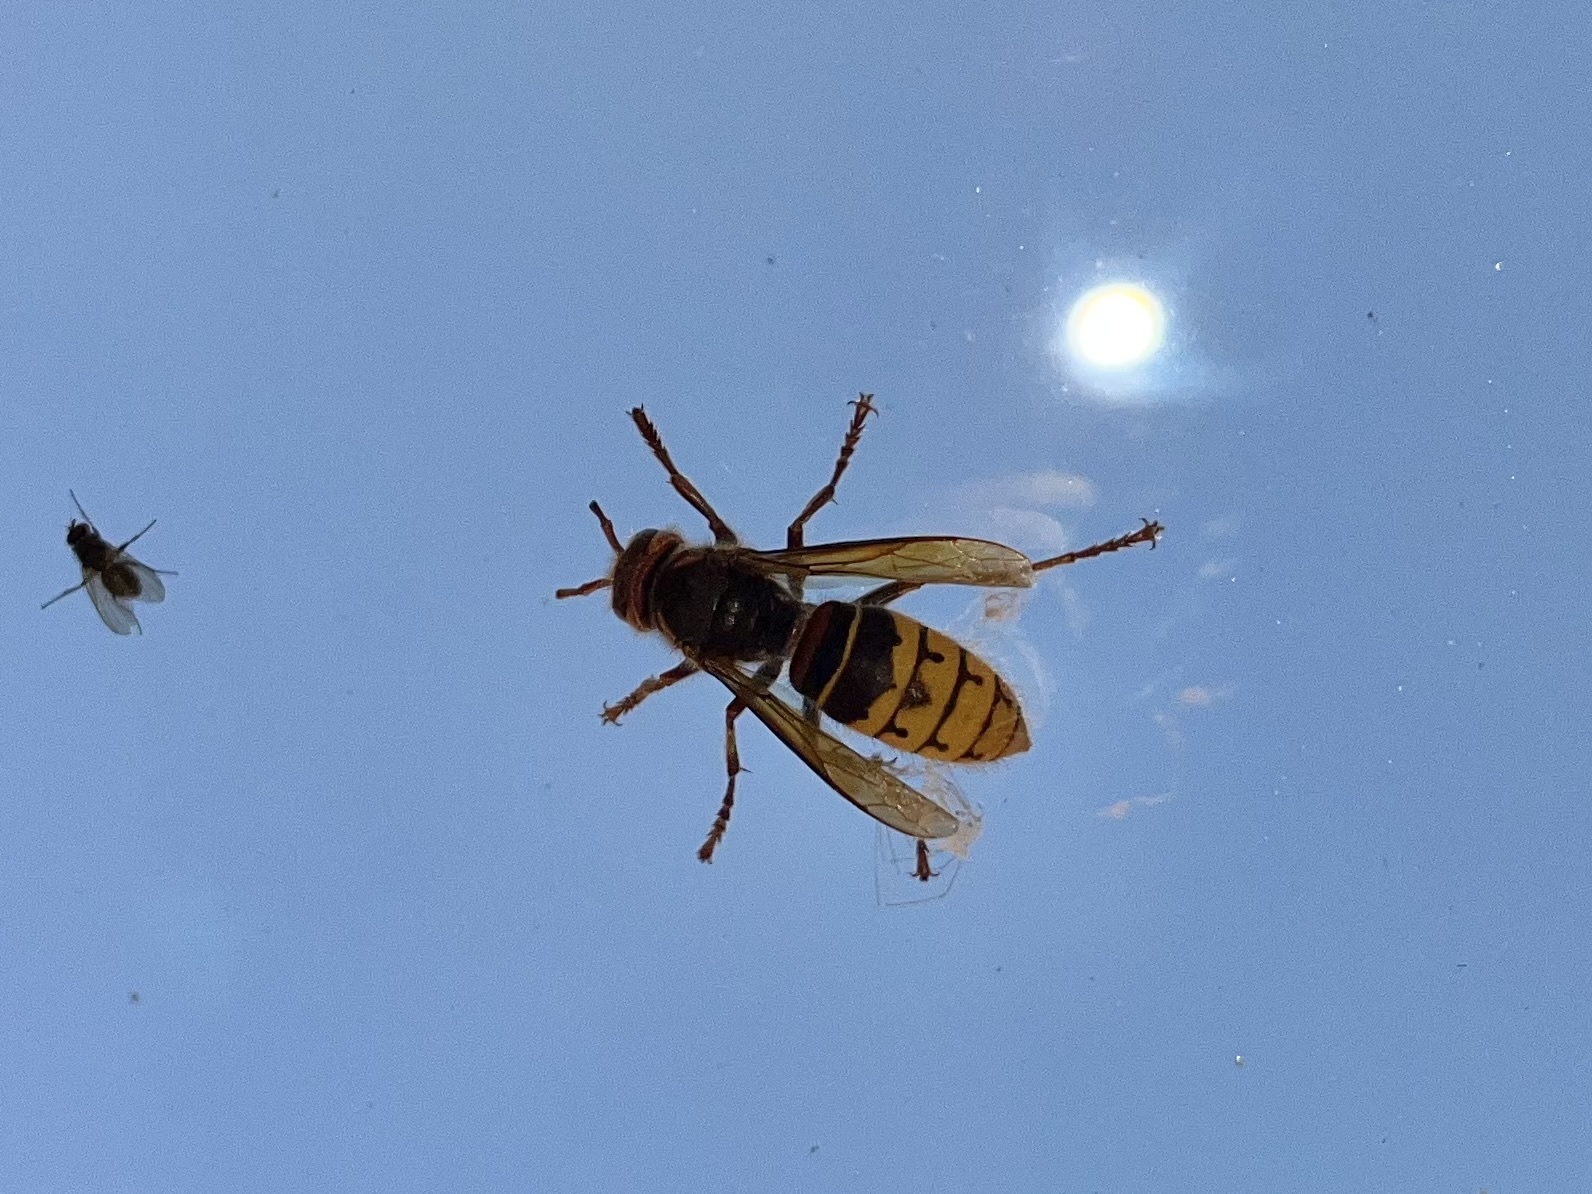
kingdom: Animalia
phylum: Arthropoda
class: Insecta
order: Hymenoptera
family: Vespidae
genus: Vespa
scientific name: Vespa crabro
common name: Hornet
